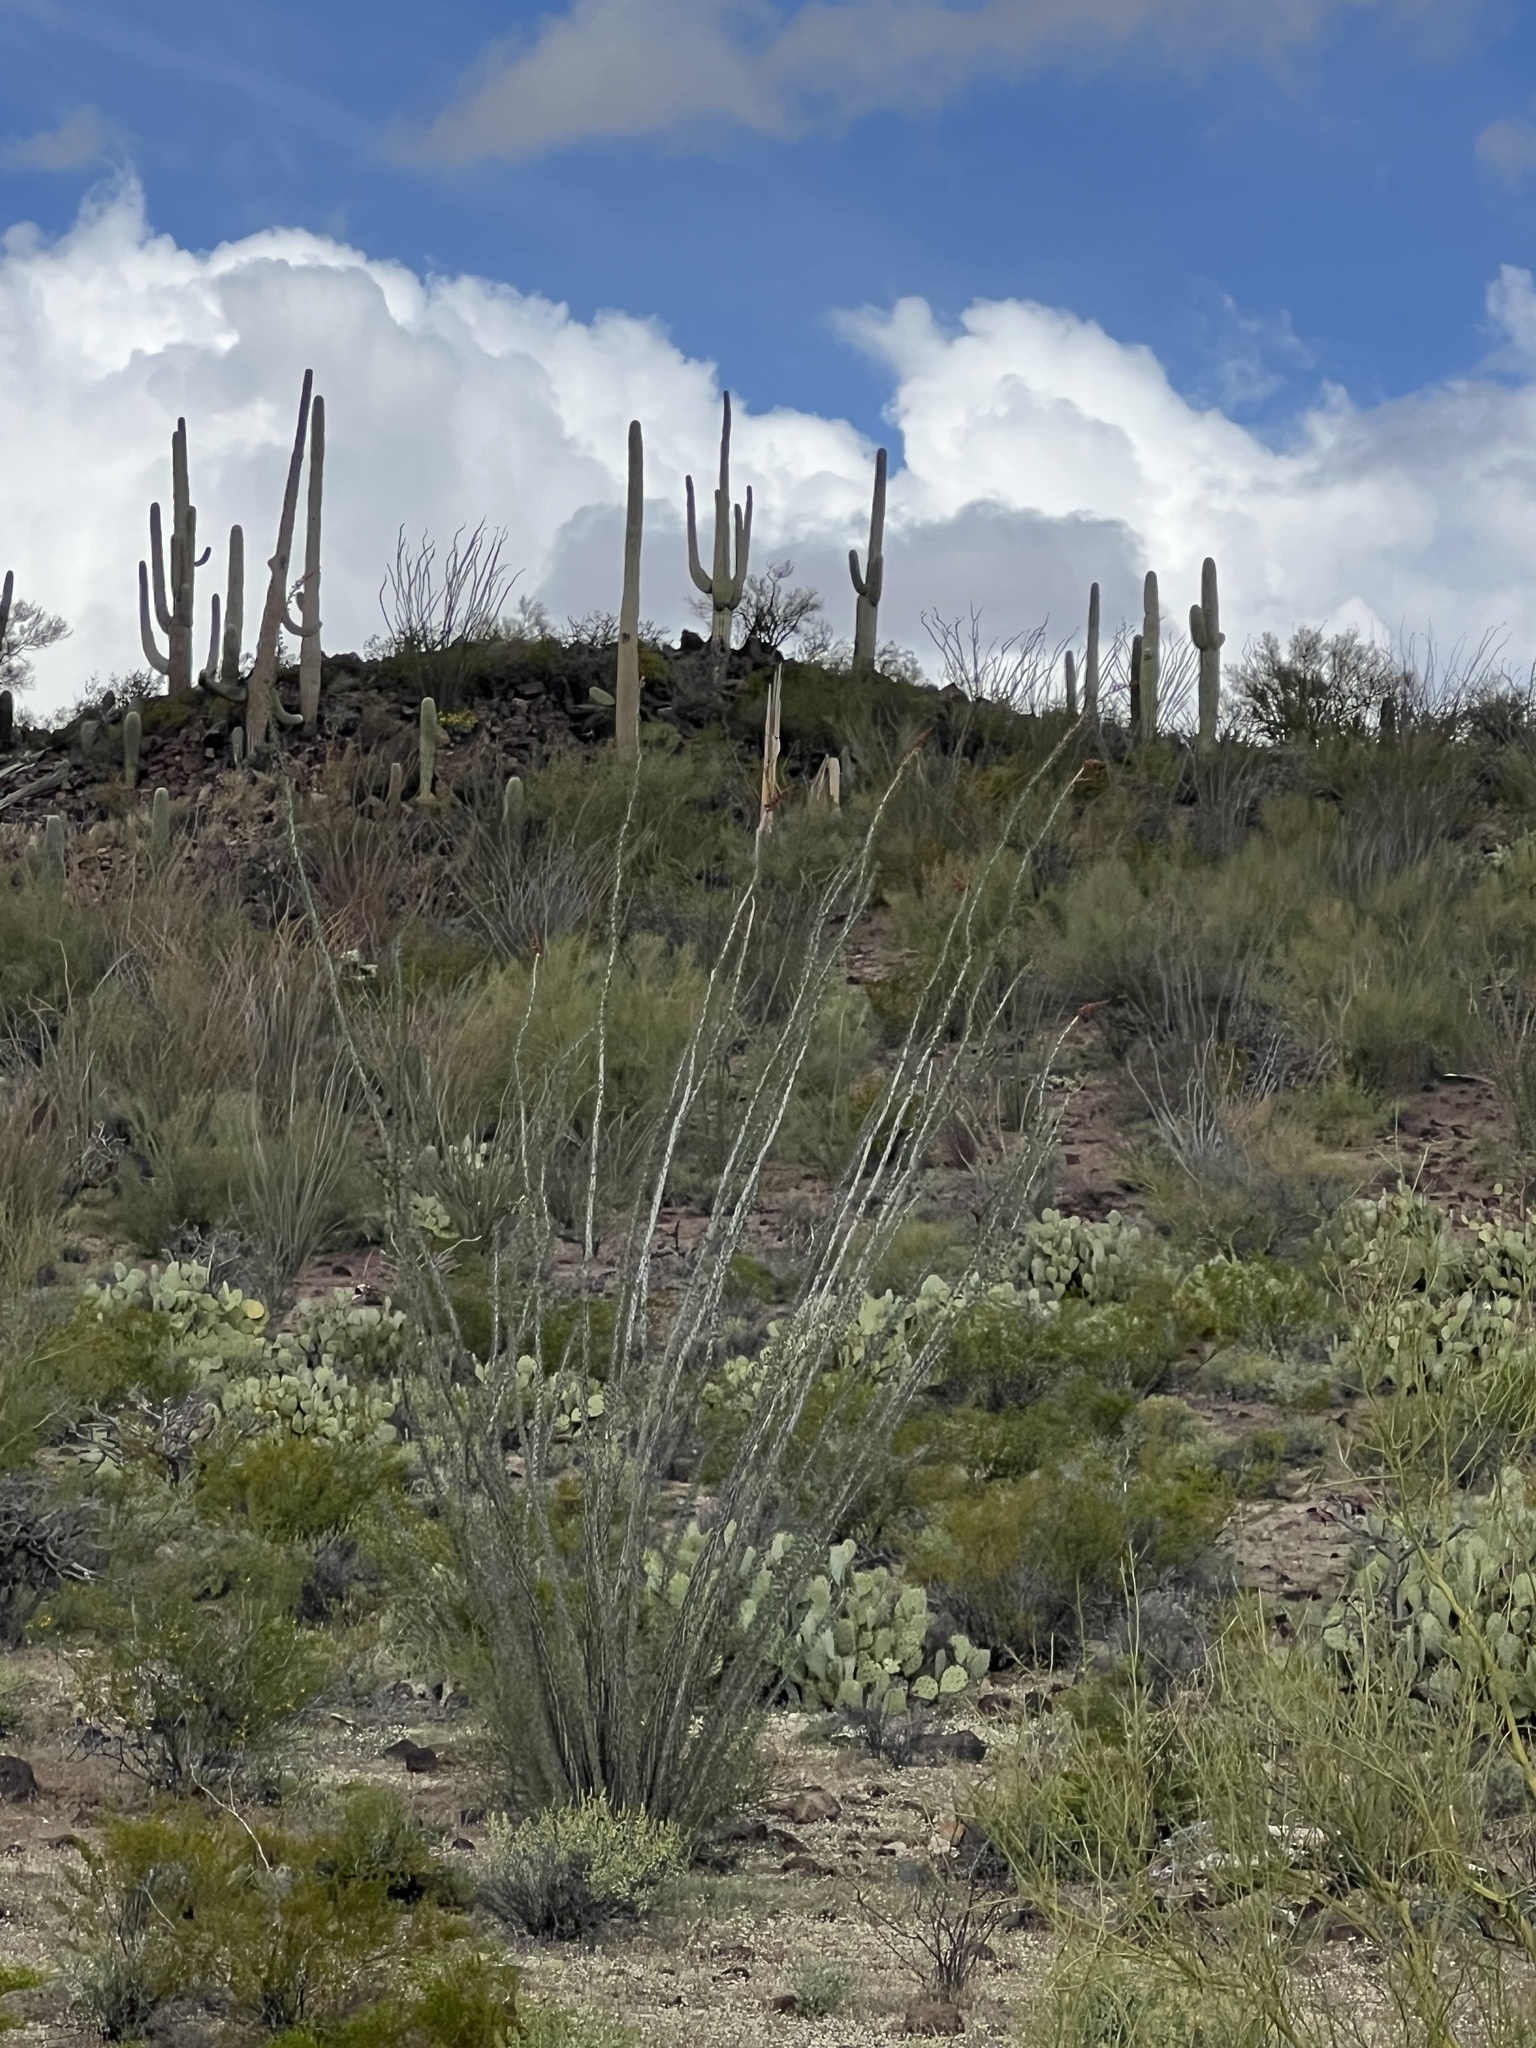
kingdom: Plantae
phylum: Tracheophyta
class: Magnoliopsida
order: Ericales
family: Fouquieriaceae
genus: Fouquieria
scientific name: Fouquieria splendens
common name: Vine-cactus
